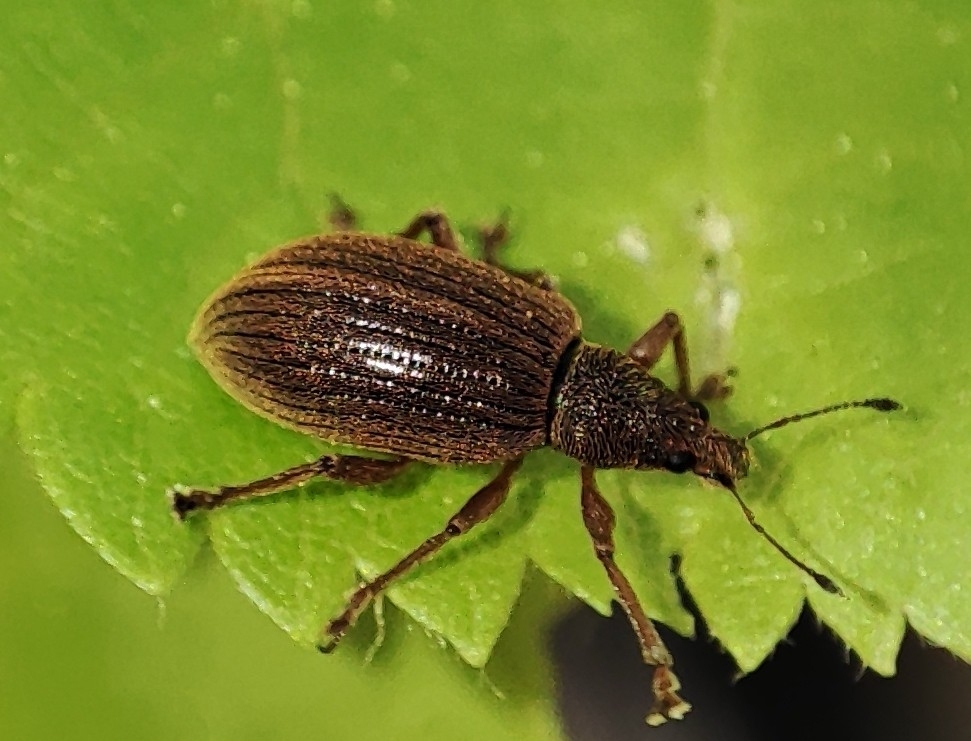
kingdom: Animalia
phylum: Arthropoda
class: Insecta
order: Coleoptera
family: Curculionidae
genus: Polydrusus
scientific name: Polydrusus mollis
